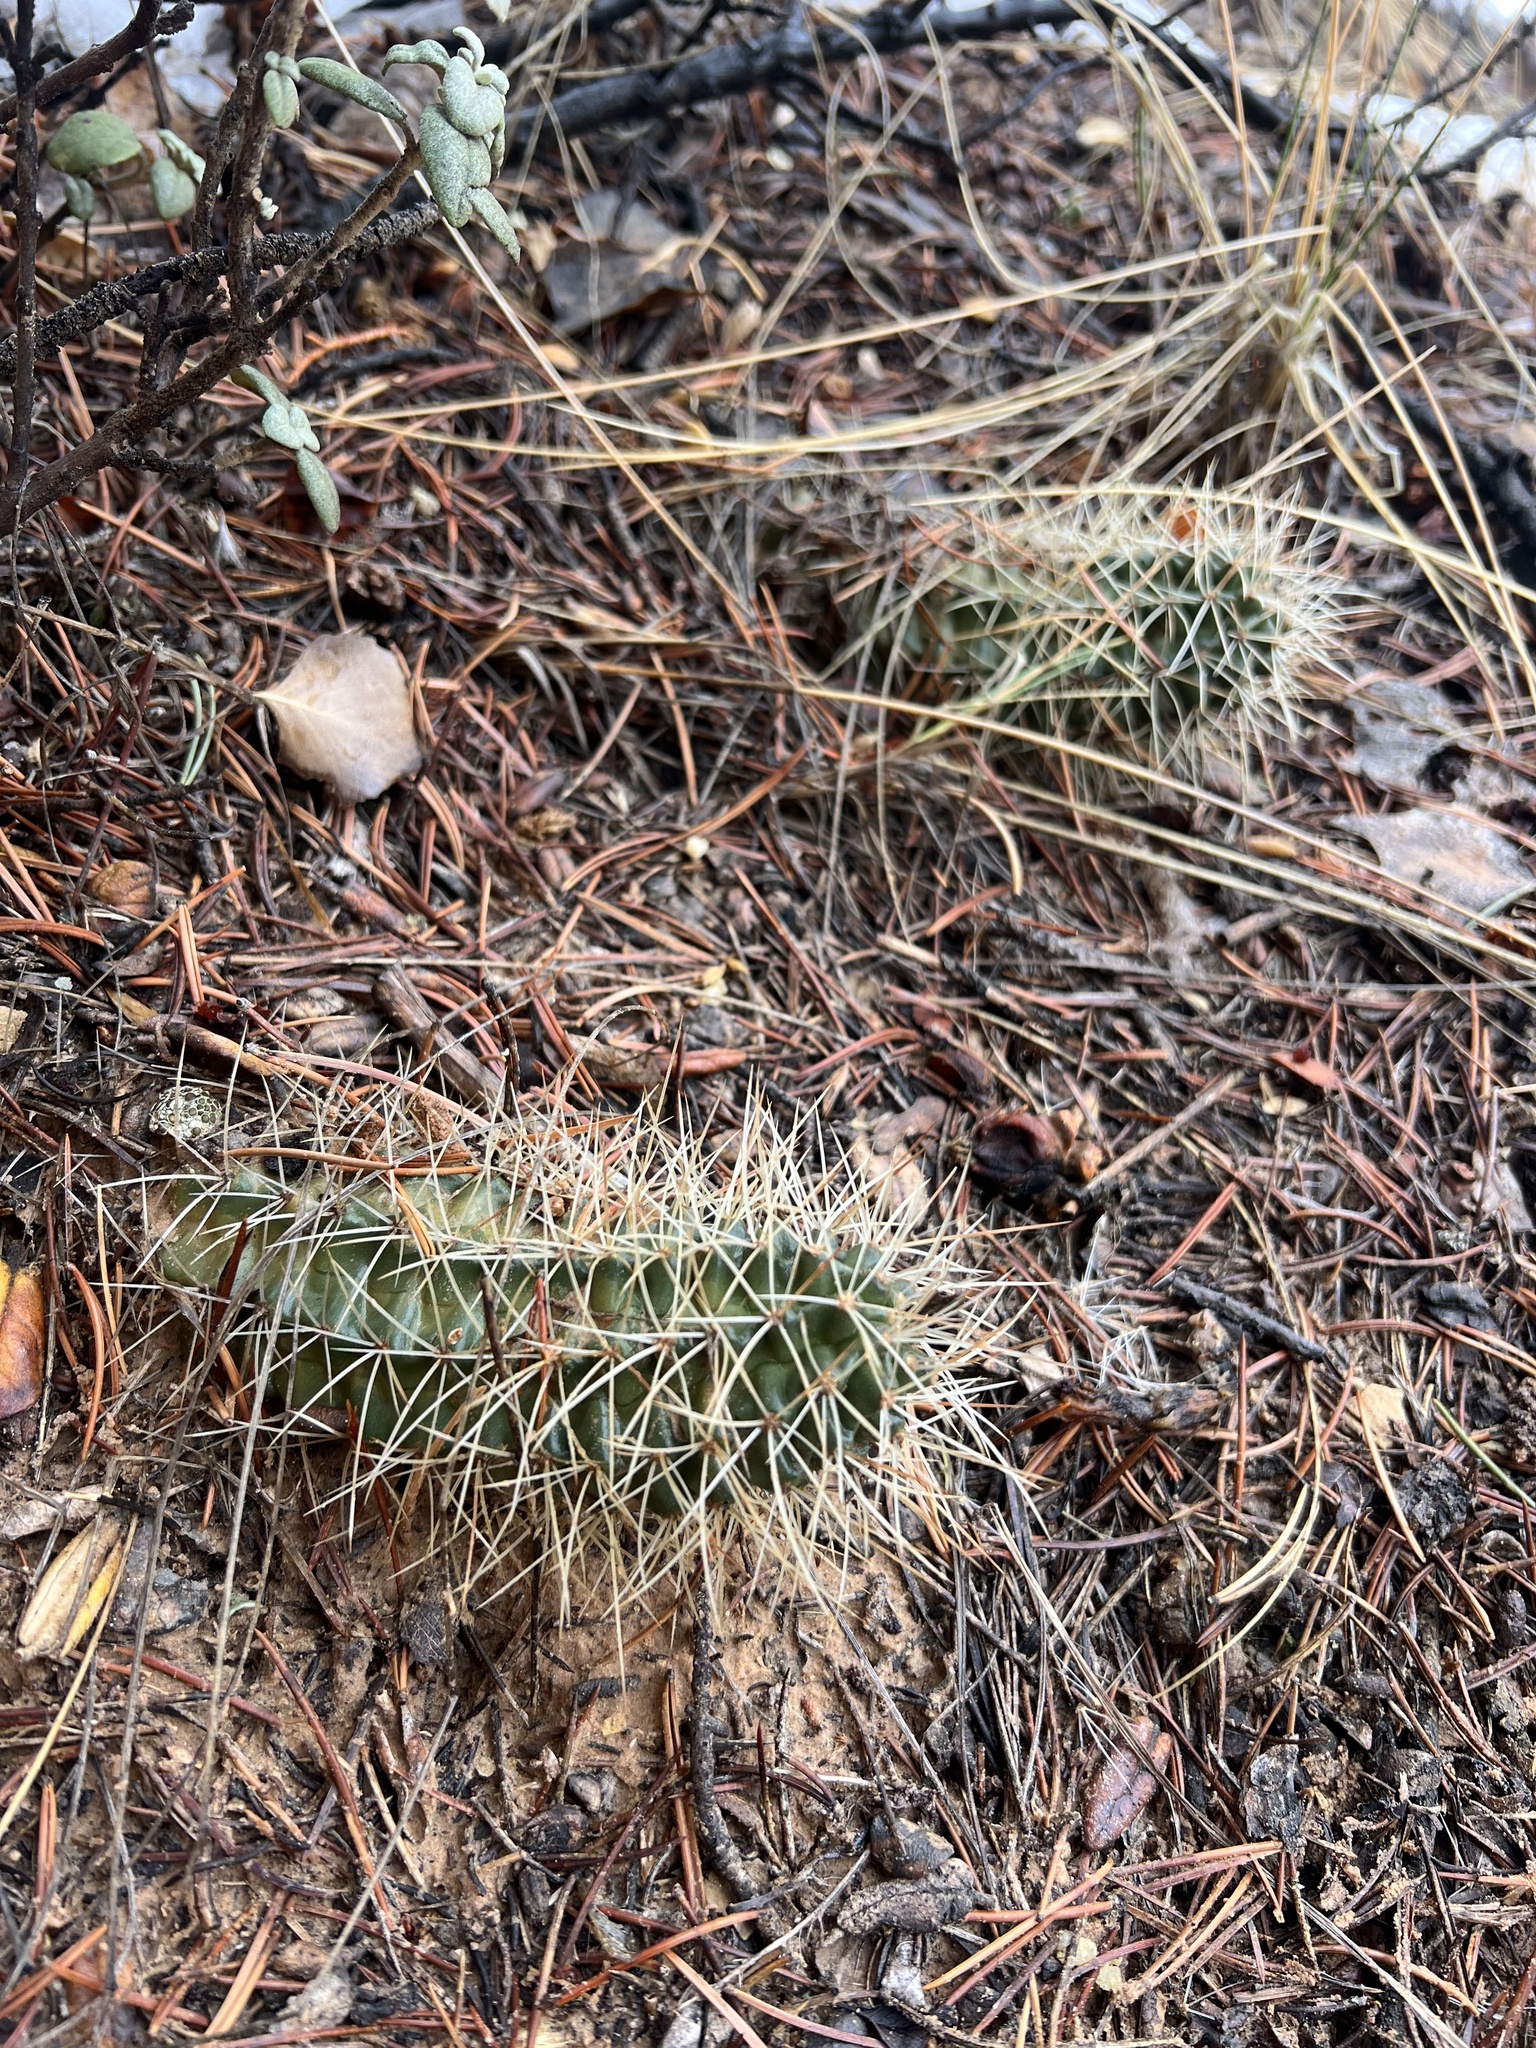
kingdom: Plantae
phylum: Tracheophyta
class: Magnoliopsida
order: Caryophyllales
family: Cactaceae
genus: Echinocereus
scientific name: Echinocereus triglochidiatus
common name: Claretcup hedgehog
